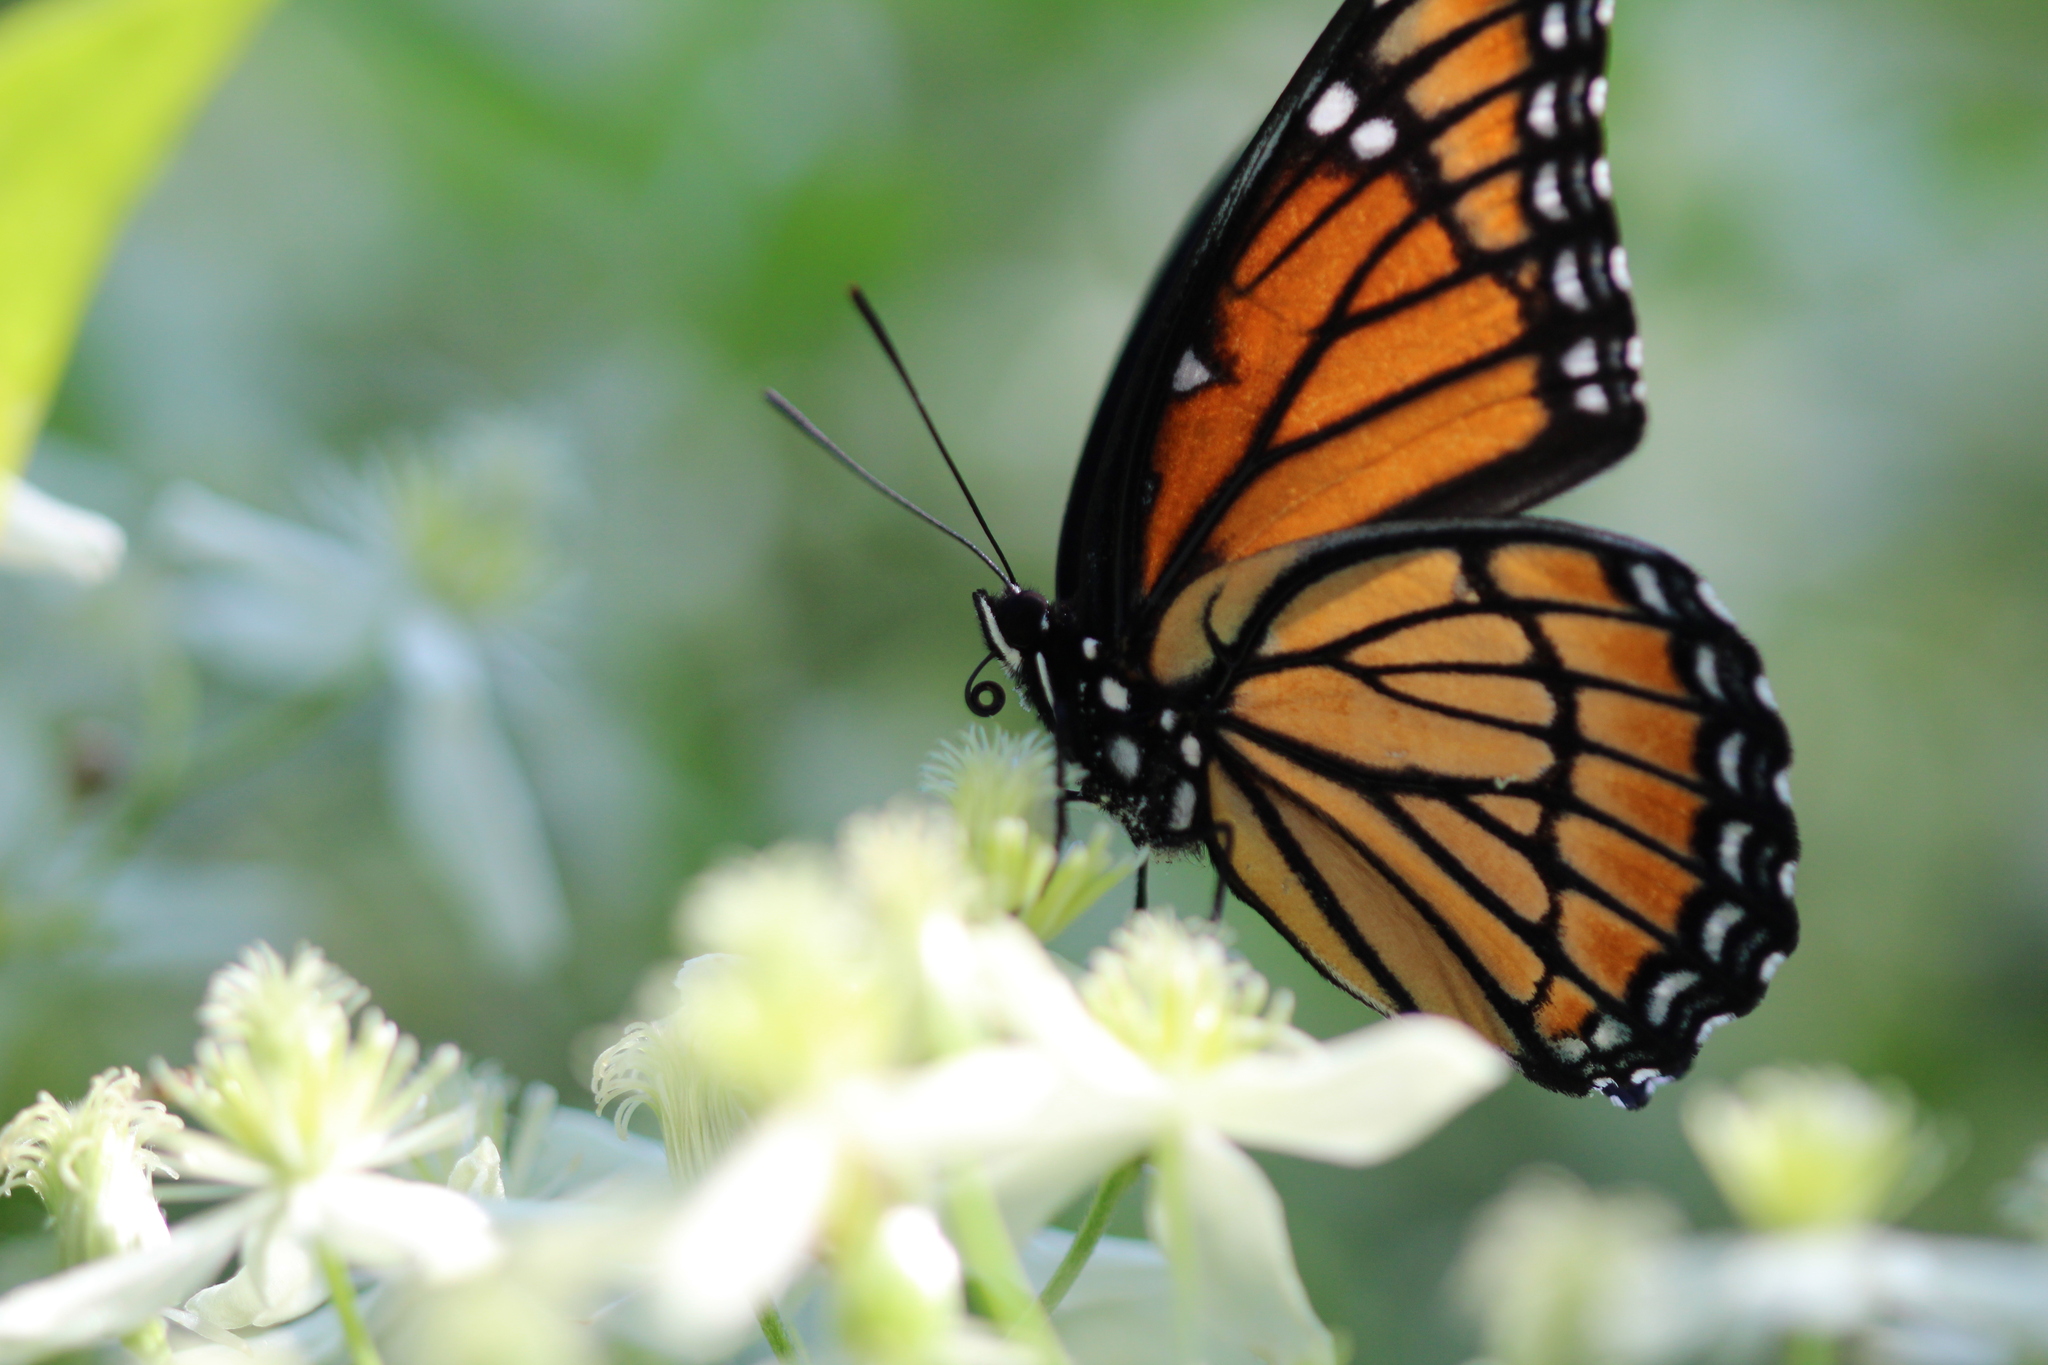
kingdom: Animalia
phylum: Arthropoda
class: Insecta
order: Lepidoptera
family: Nymphalidae
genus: Limenitis
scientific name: Limenitis archippus
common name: Viceroy
